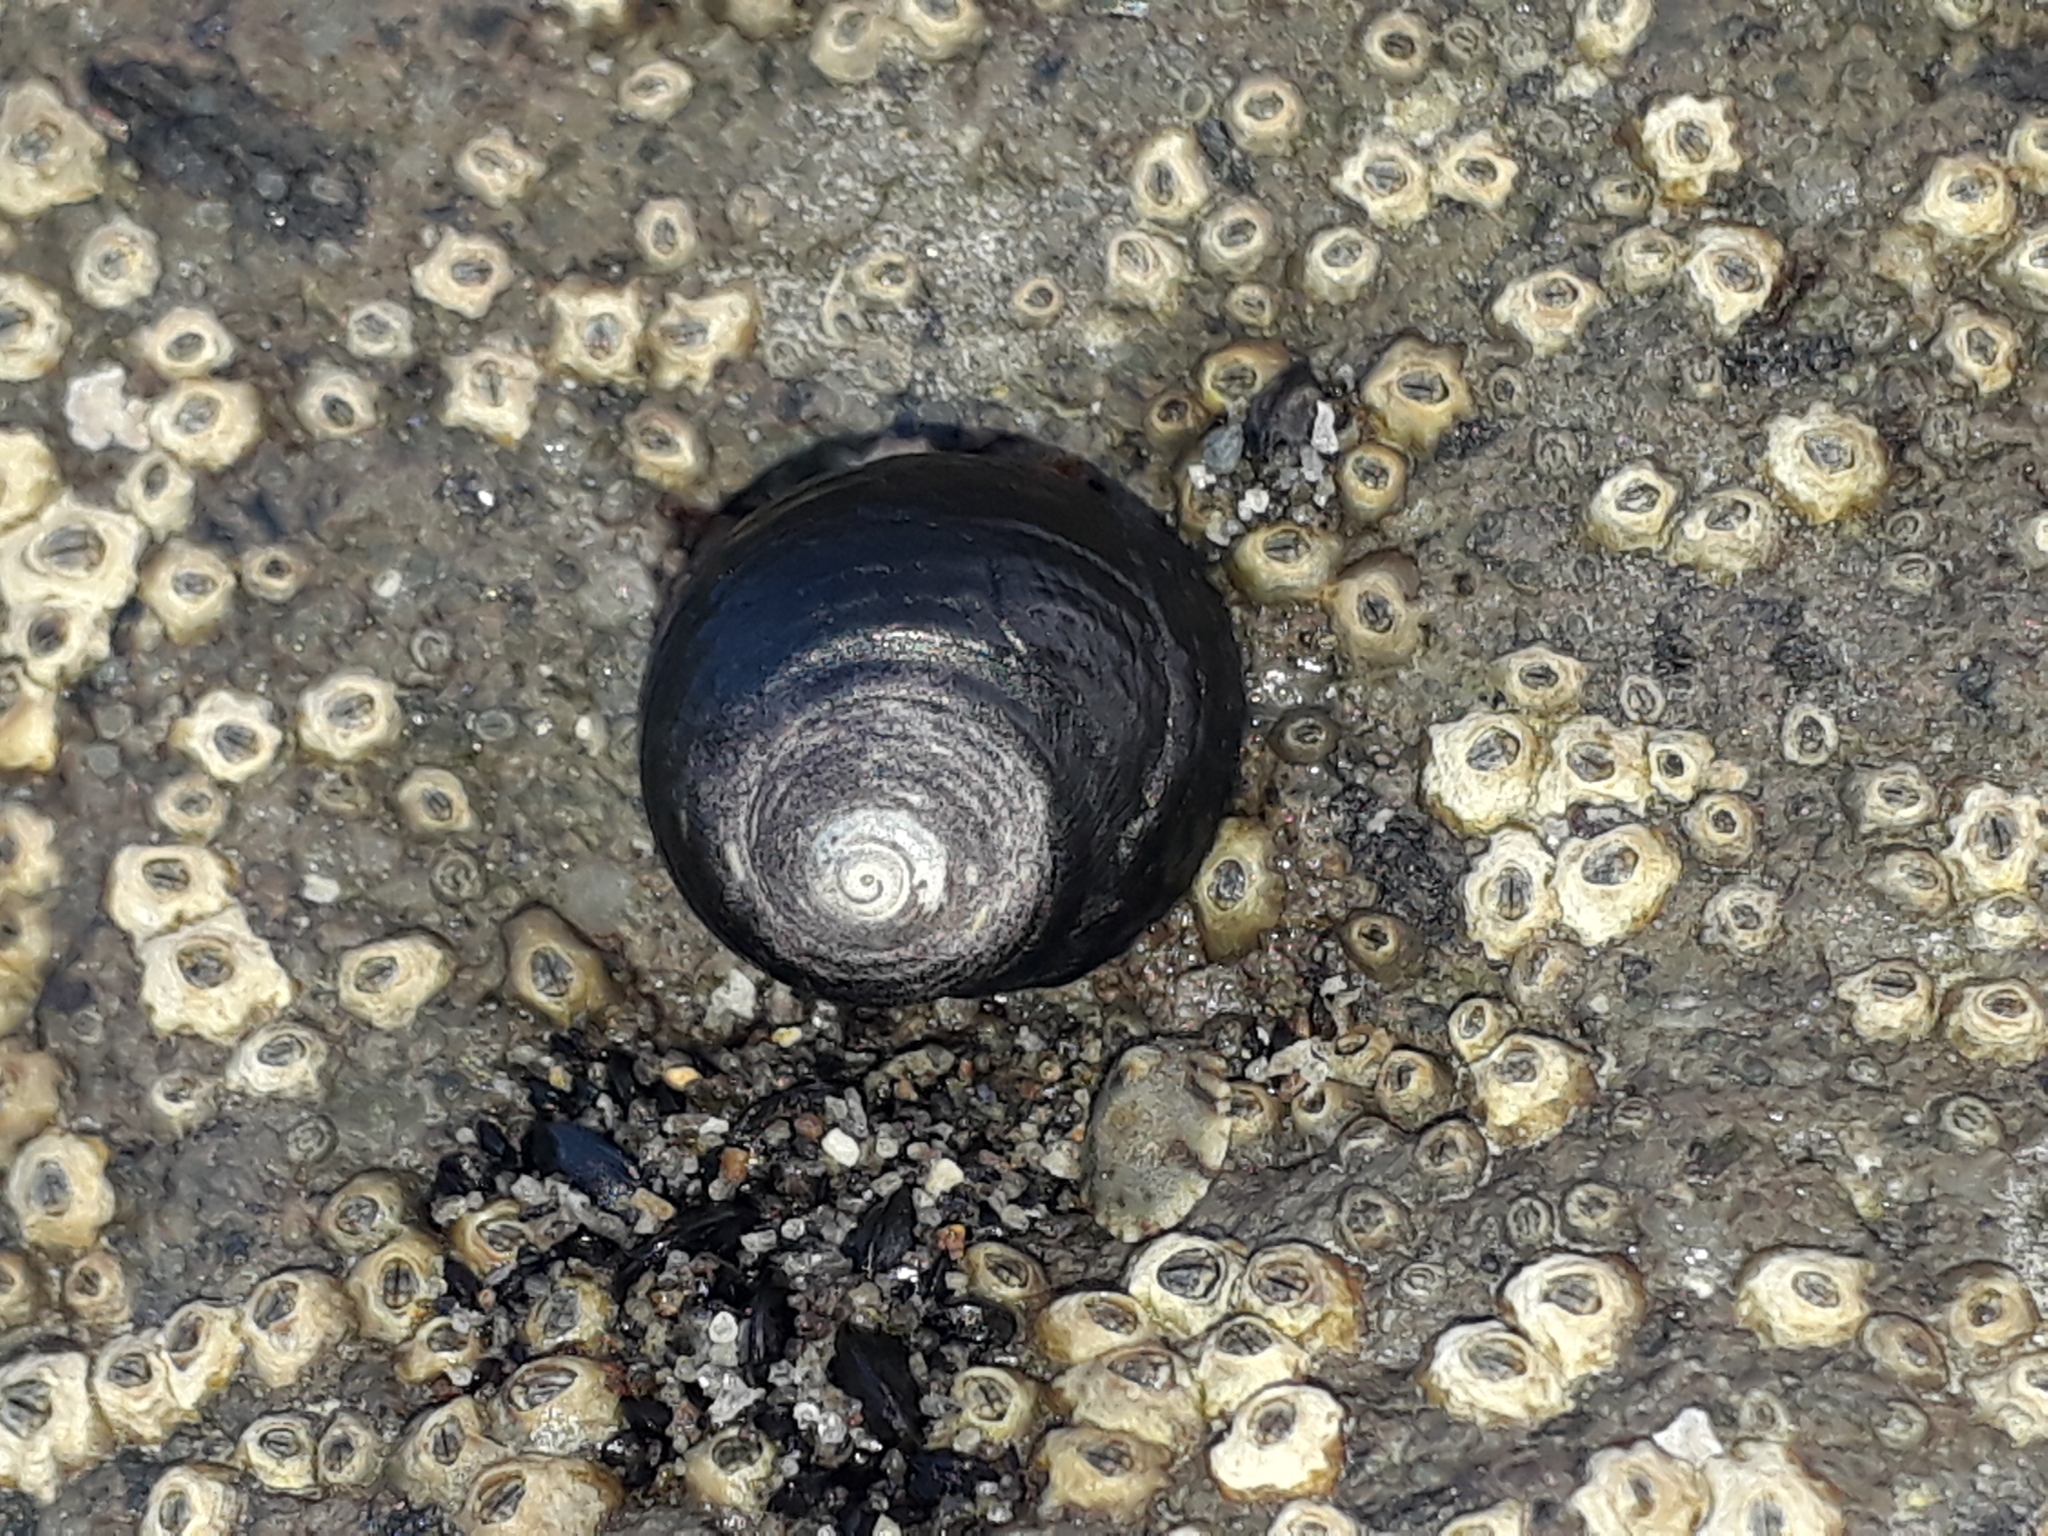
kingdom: Animalia
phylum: Mollusca
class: Gastropoda
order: Trochida
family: Trochidae
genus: Diloma
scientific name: Diloma nigerrimum
